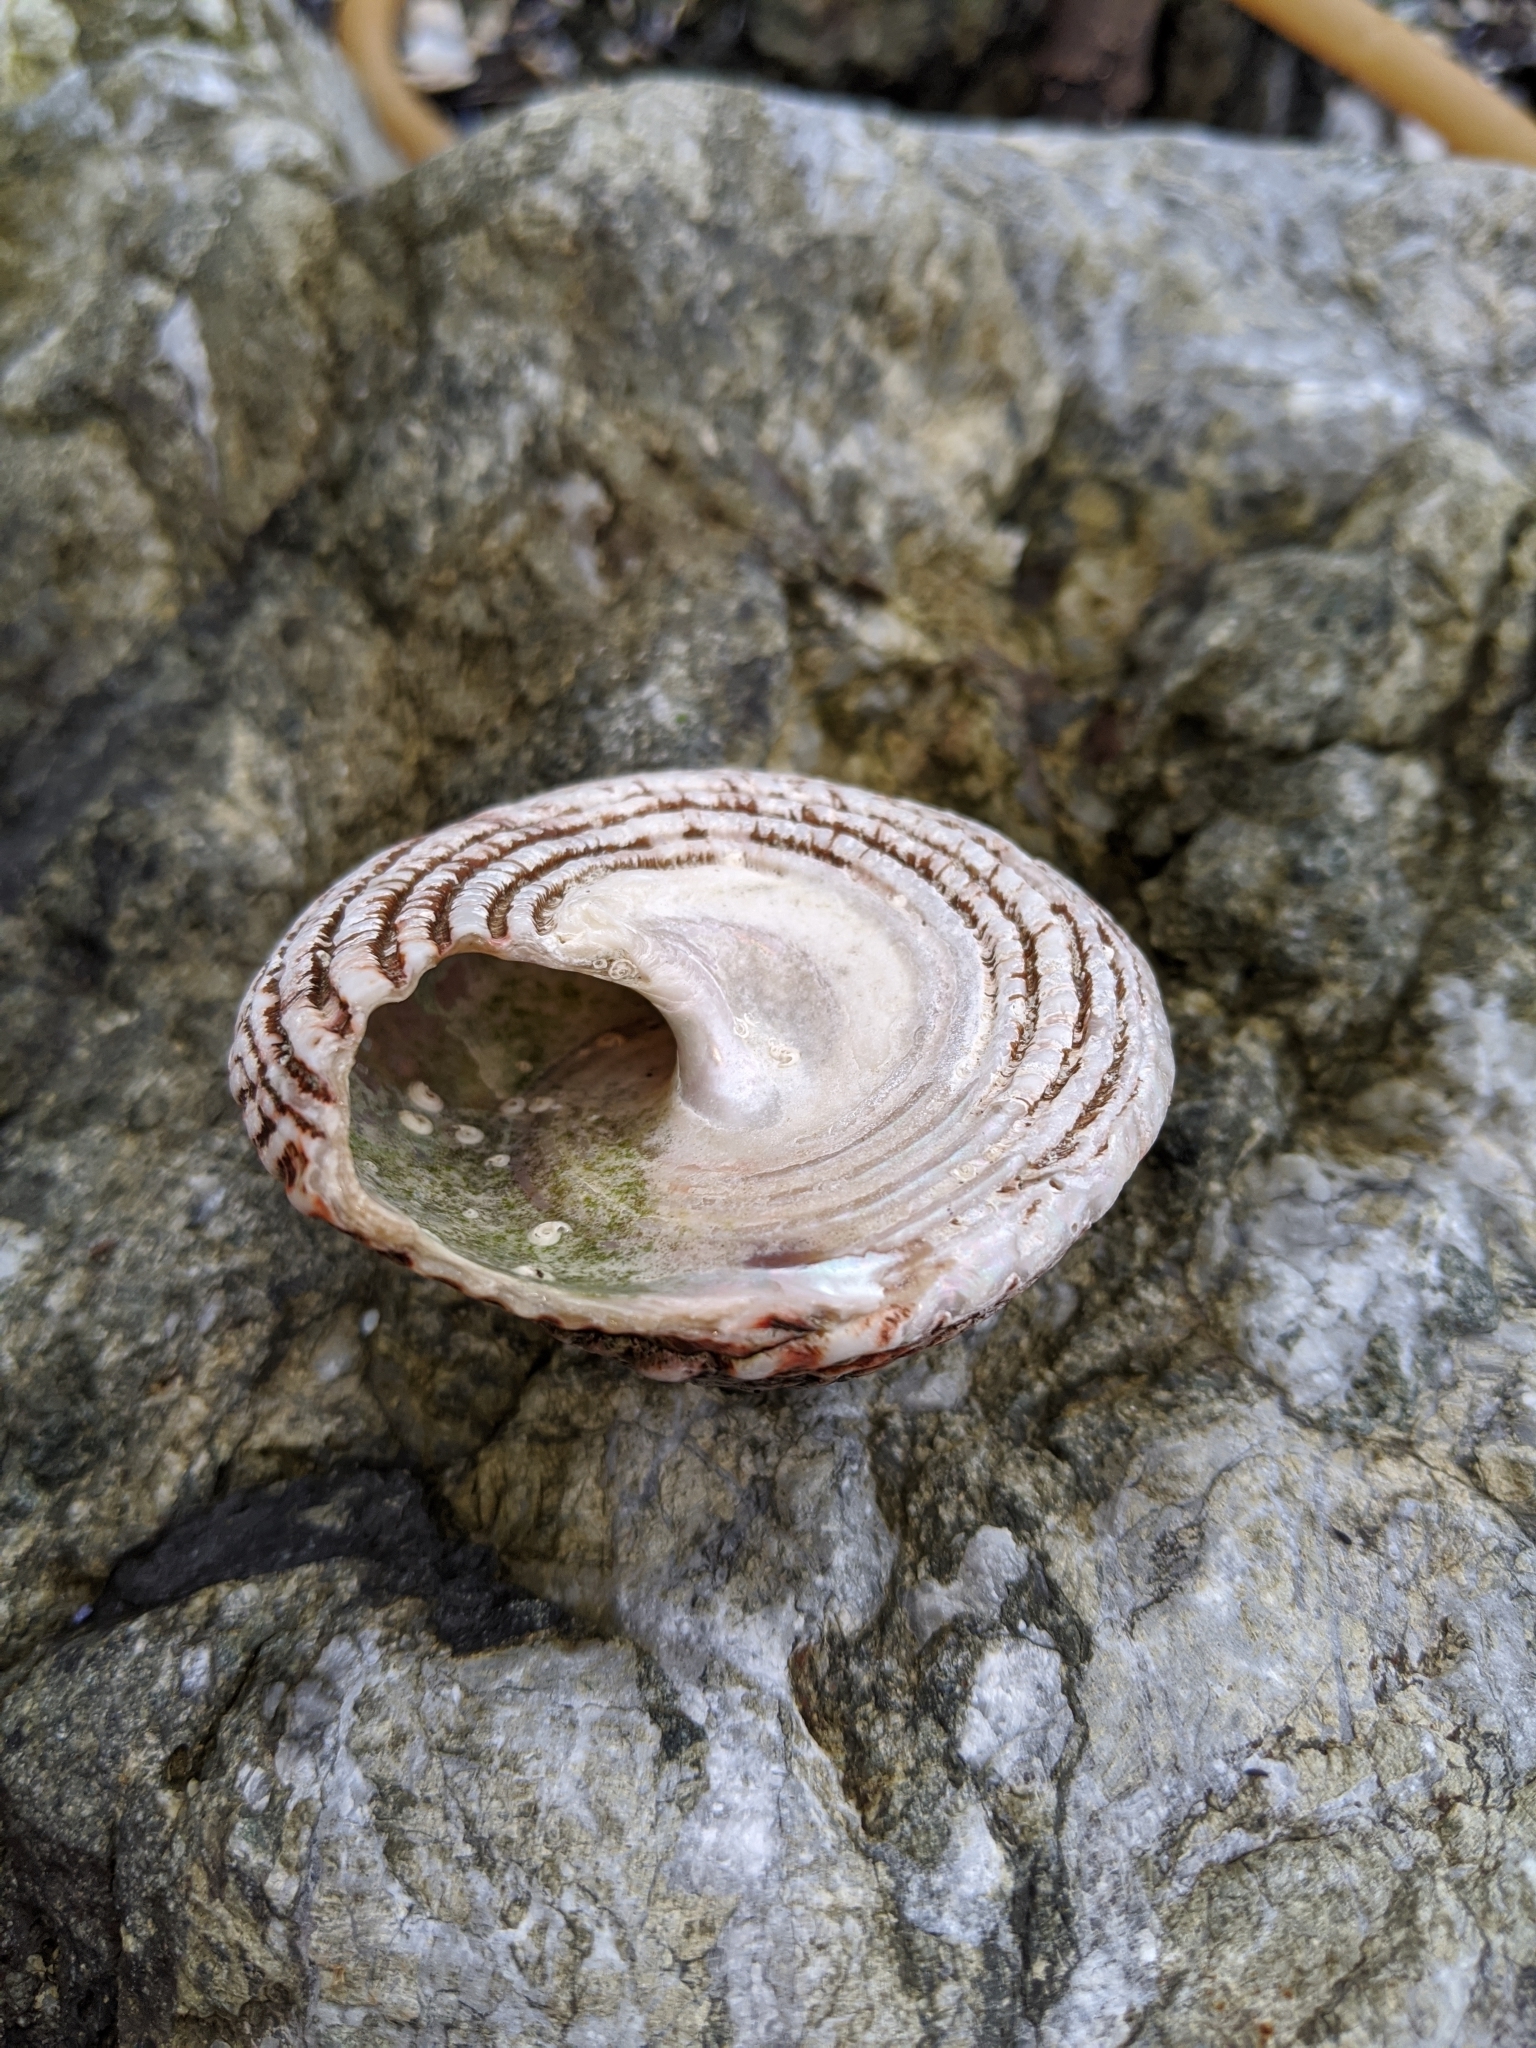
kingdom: Animalia
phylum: Mollusca
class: Gastropoda
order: Trochida
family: Turbinidae
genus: Pomaulax
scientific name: Pomaulax gibberosus
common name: Red turban
